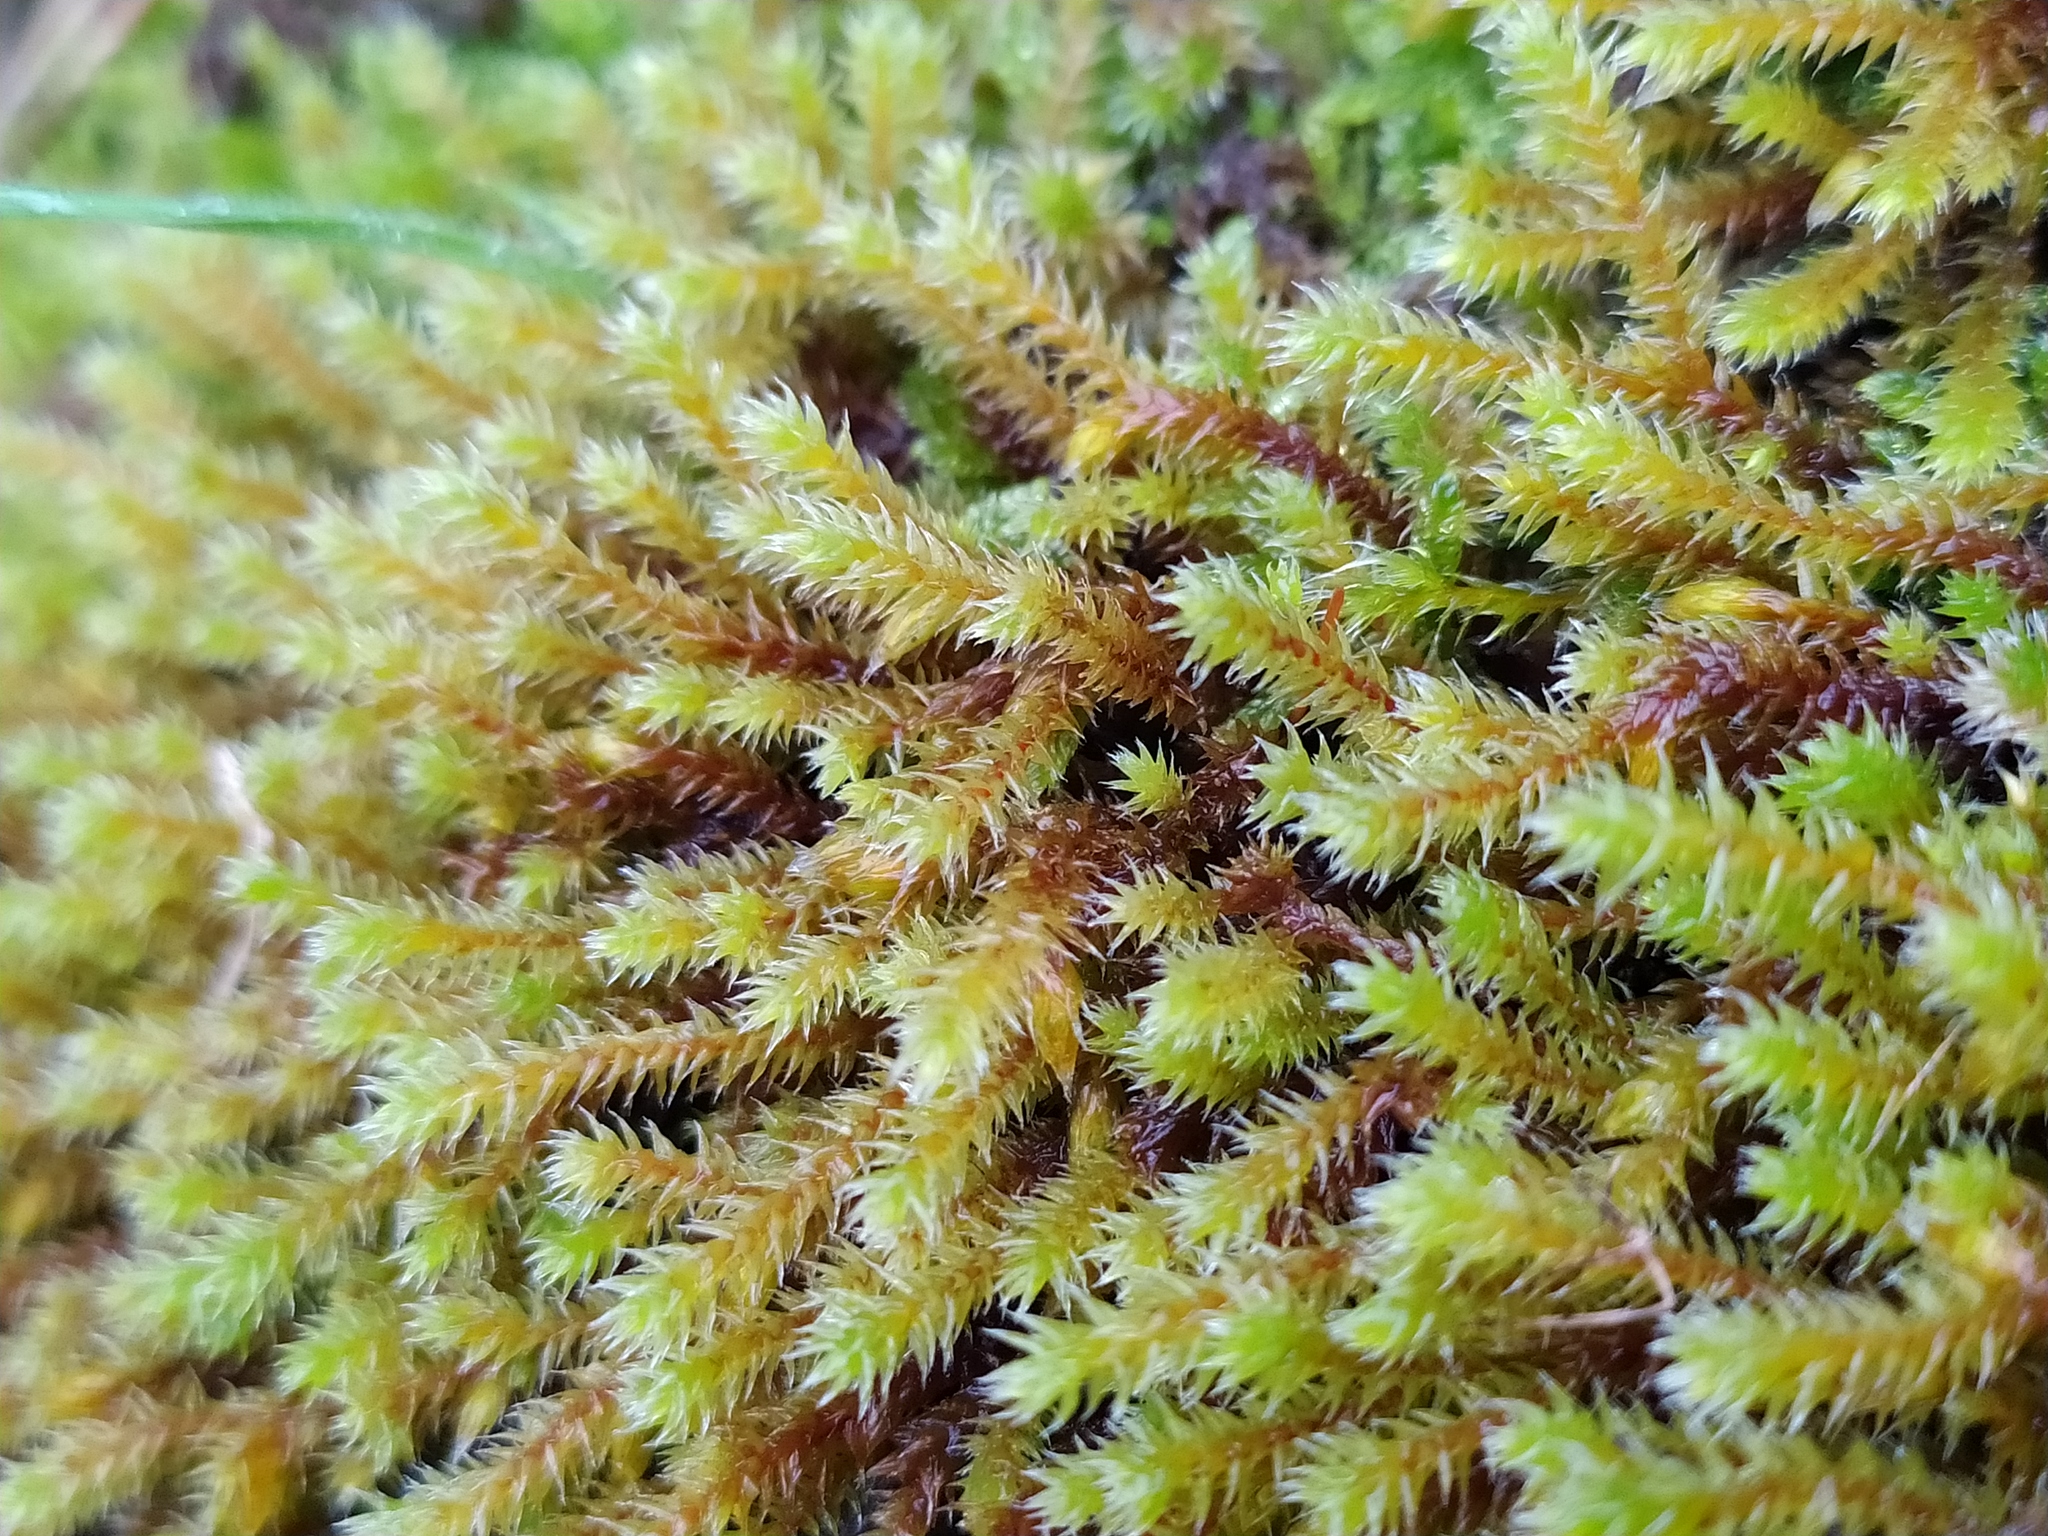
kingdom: Plantae
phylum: Bryophyta
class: Bryopsida
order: Hedwigiales
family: Hedwigiaceae
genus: Hedwigia
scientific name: Hedwigia ciliata
